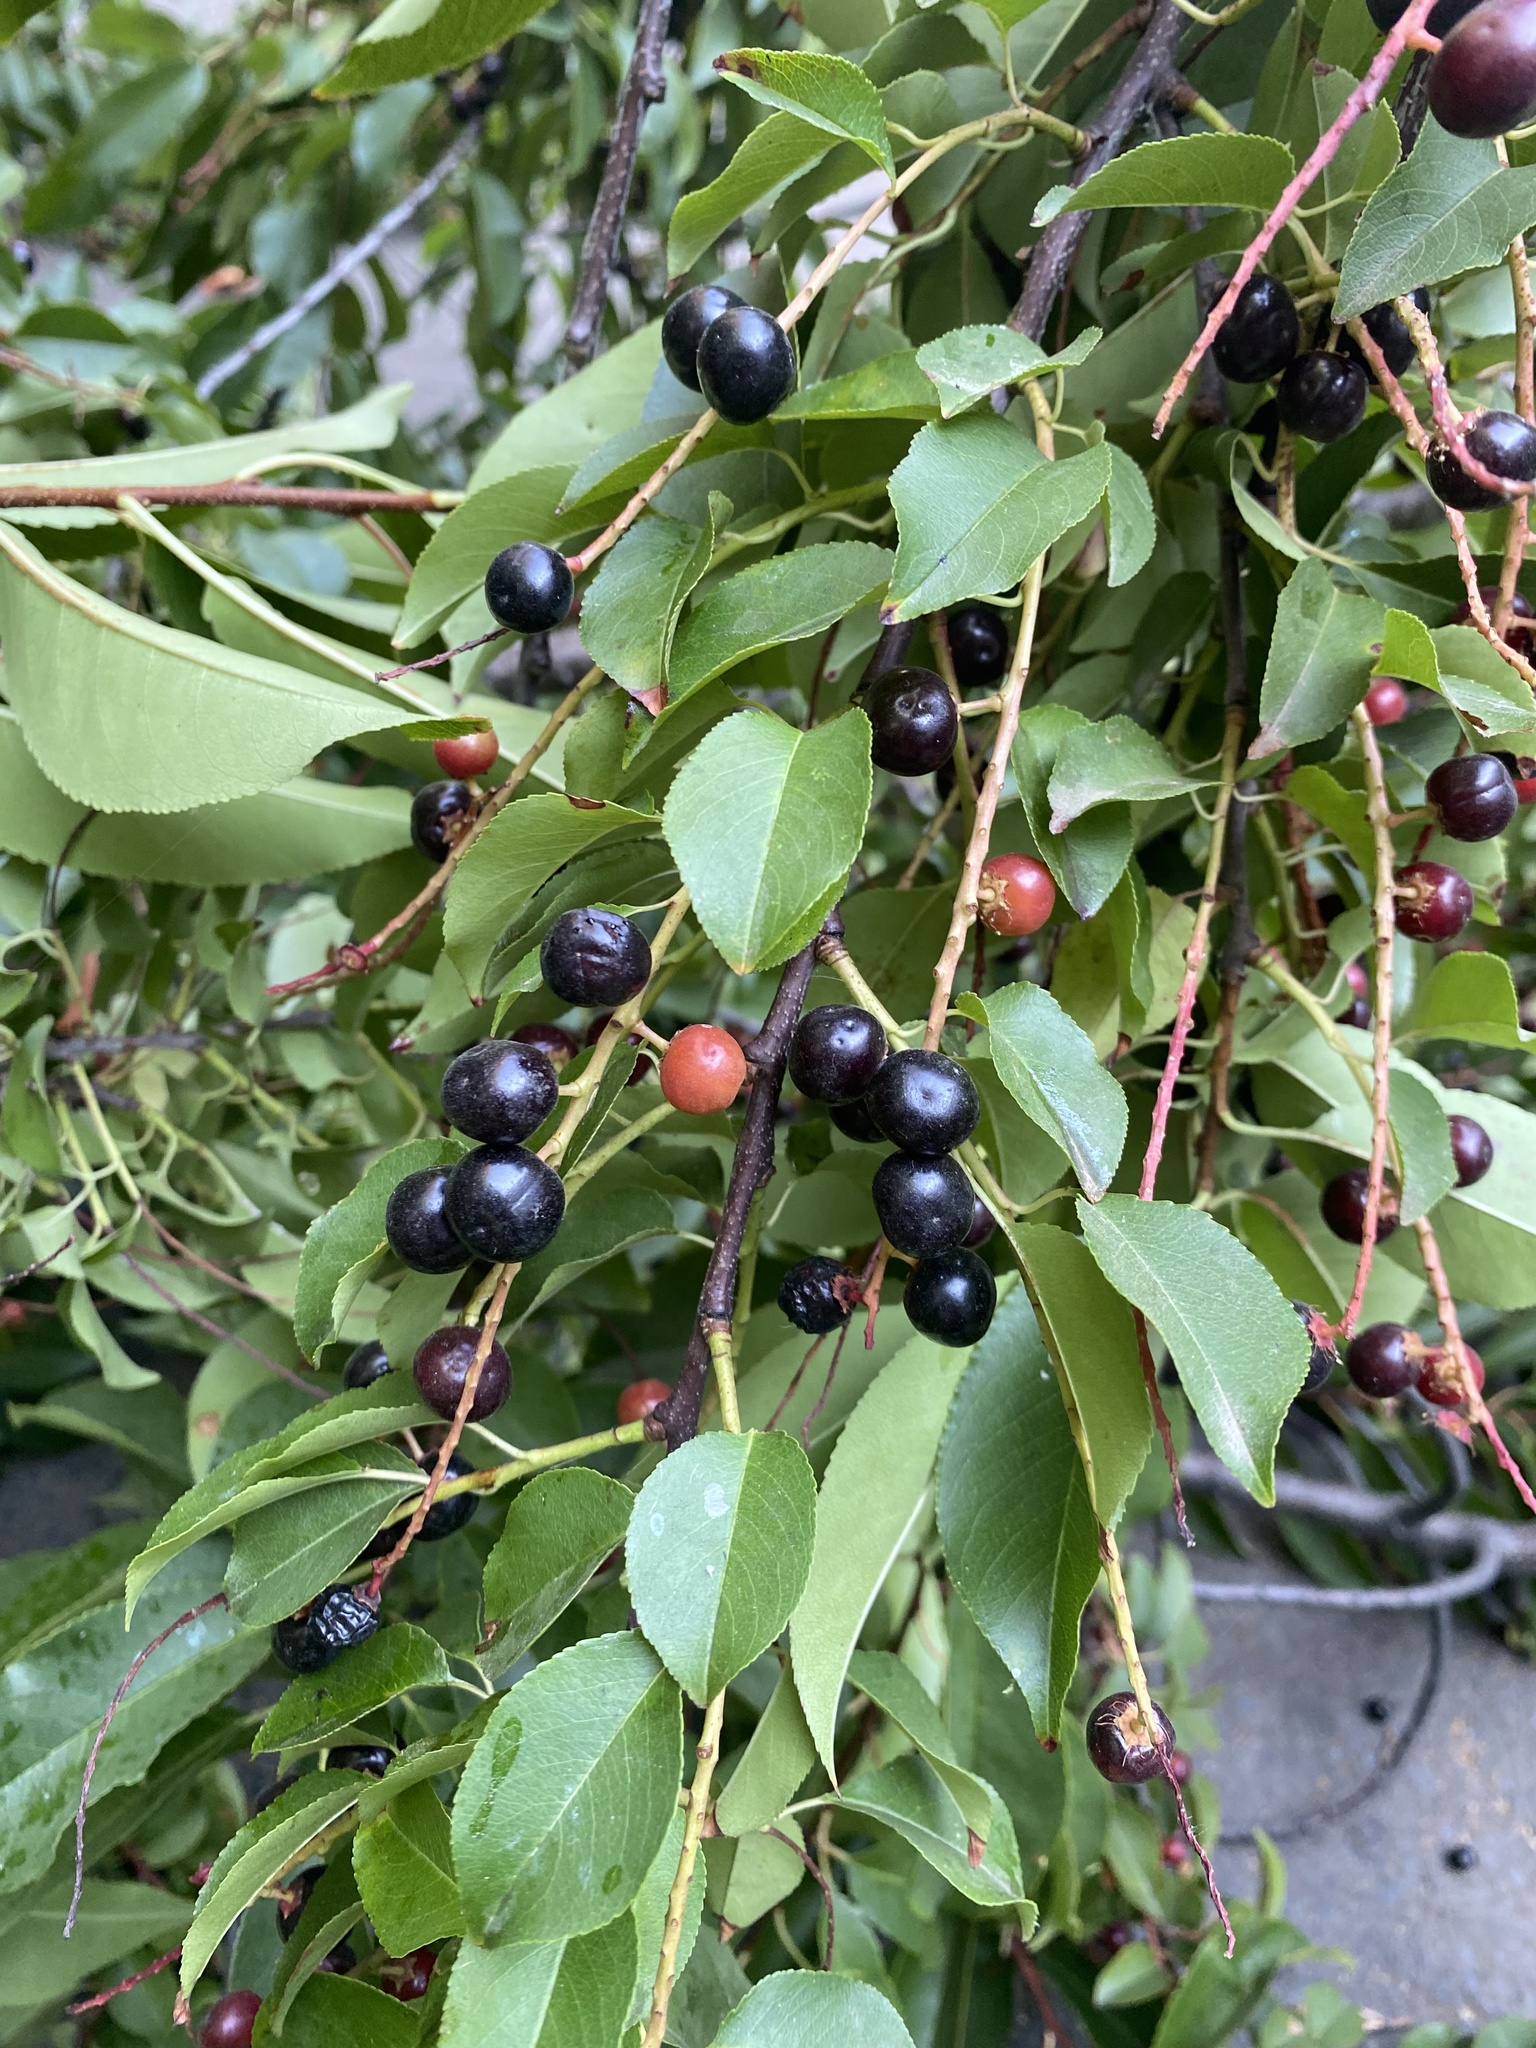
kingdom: Plantae
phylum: Tracheophyta
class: Magnoliopsida
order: Rosales
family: Rosaceae
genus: Prunus
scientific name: Prunus serotina
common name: Black cherry
